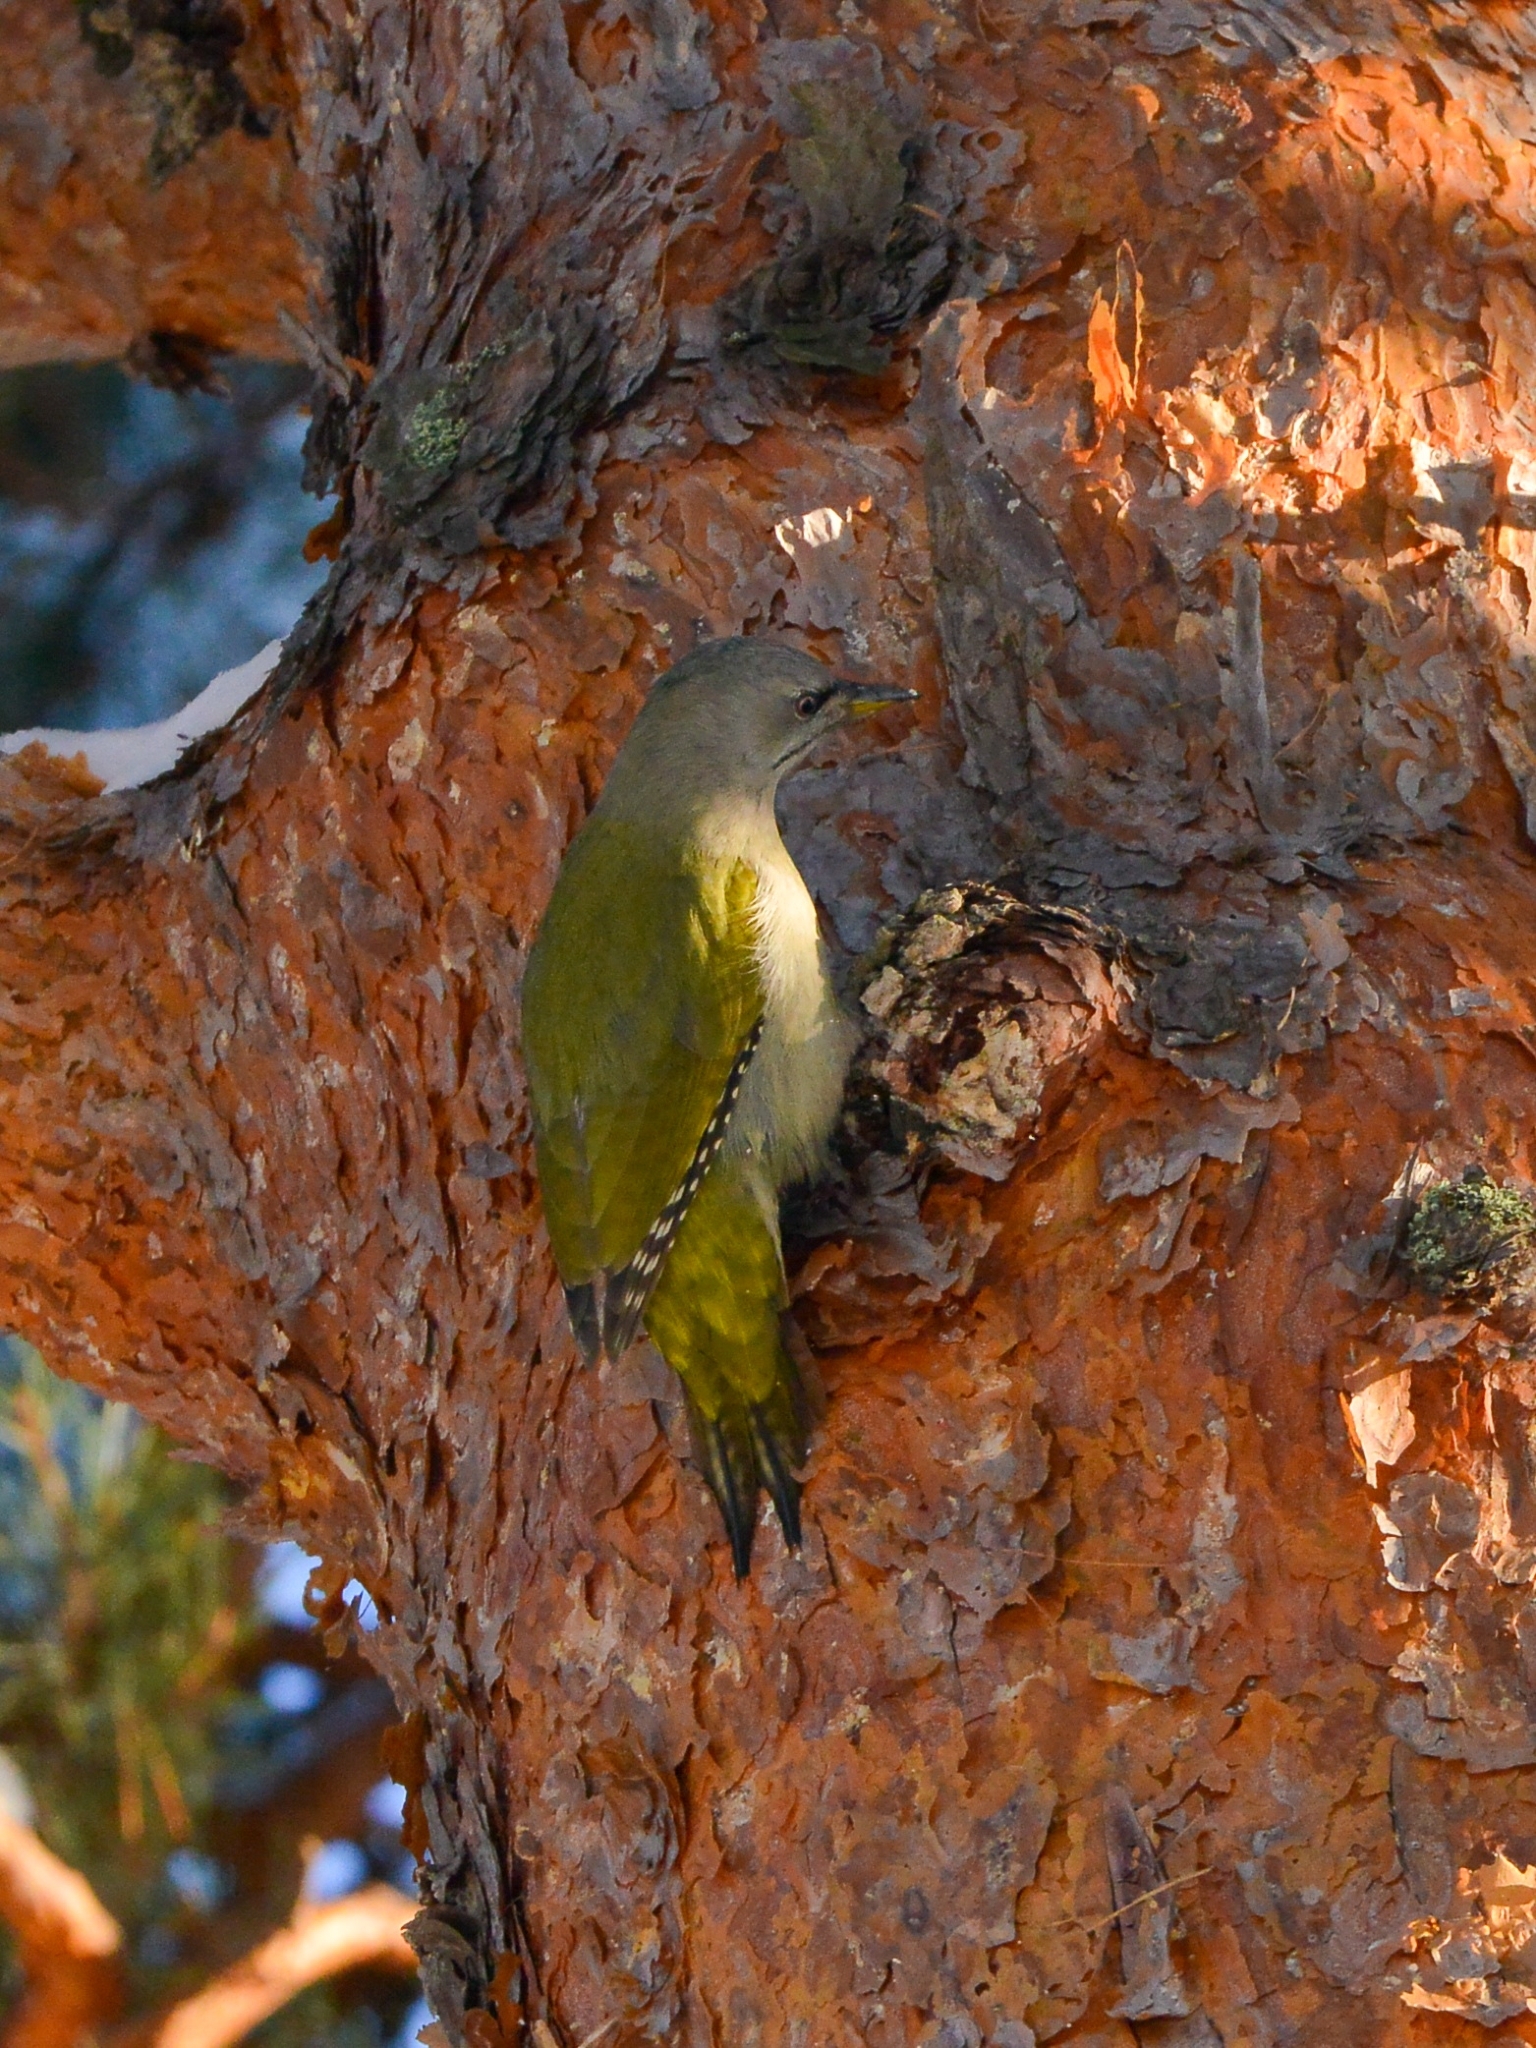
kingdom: Animalia
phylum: Chordata
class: Aves
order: Piciformes
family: Picidae
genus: Picus
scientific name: Picus canus
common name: Grey-headed woodpecker
